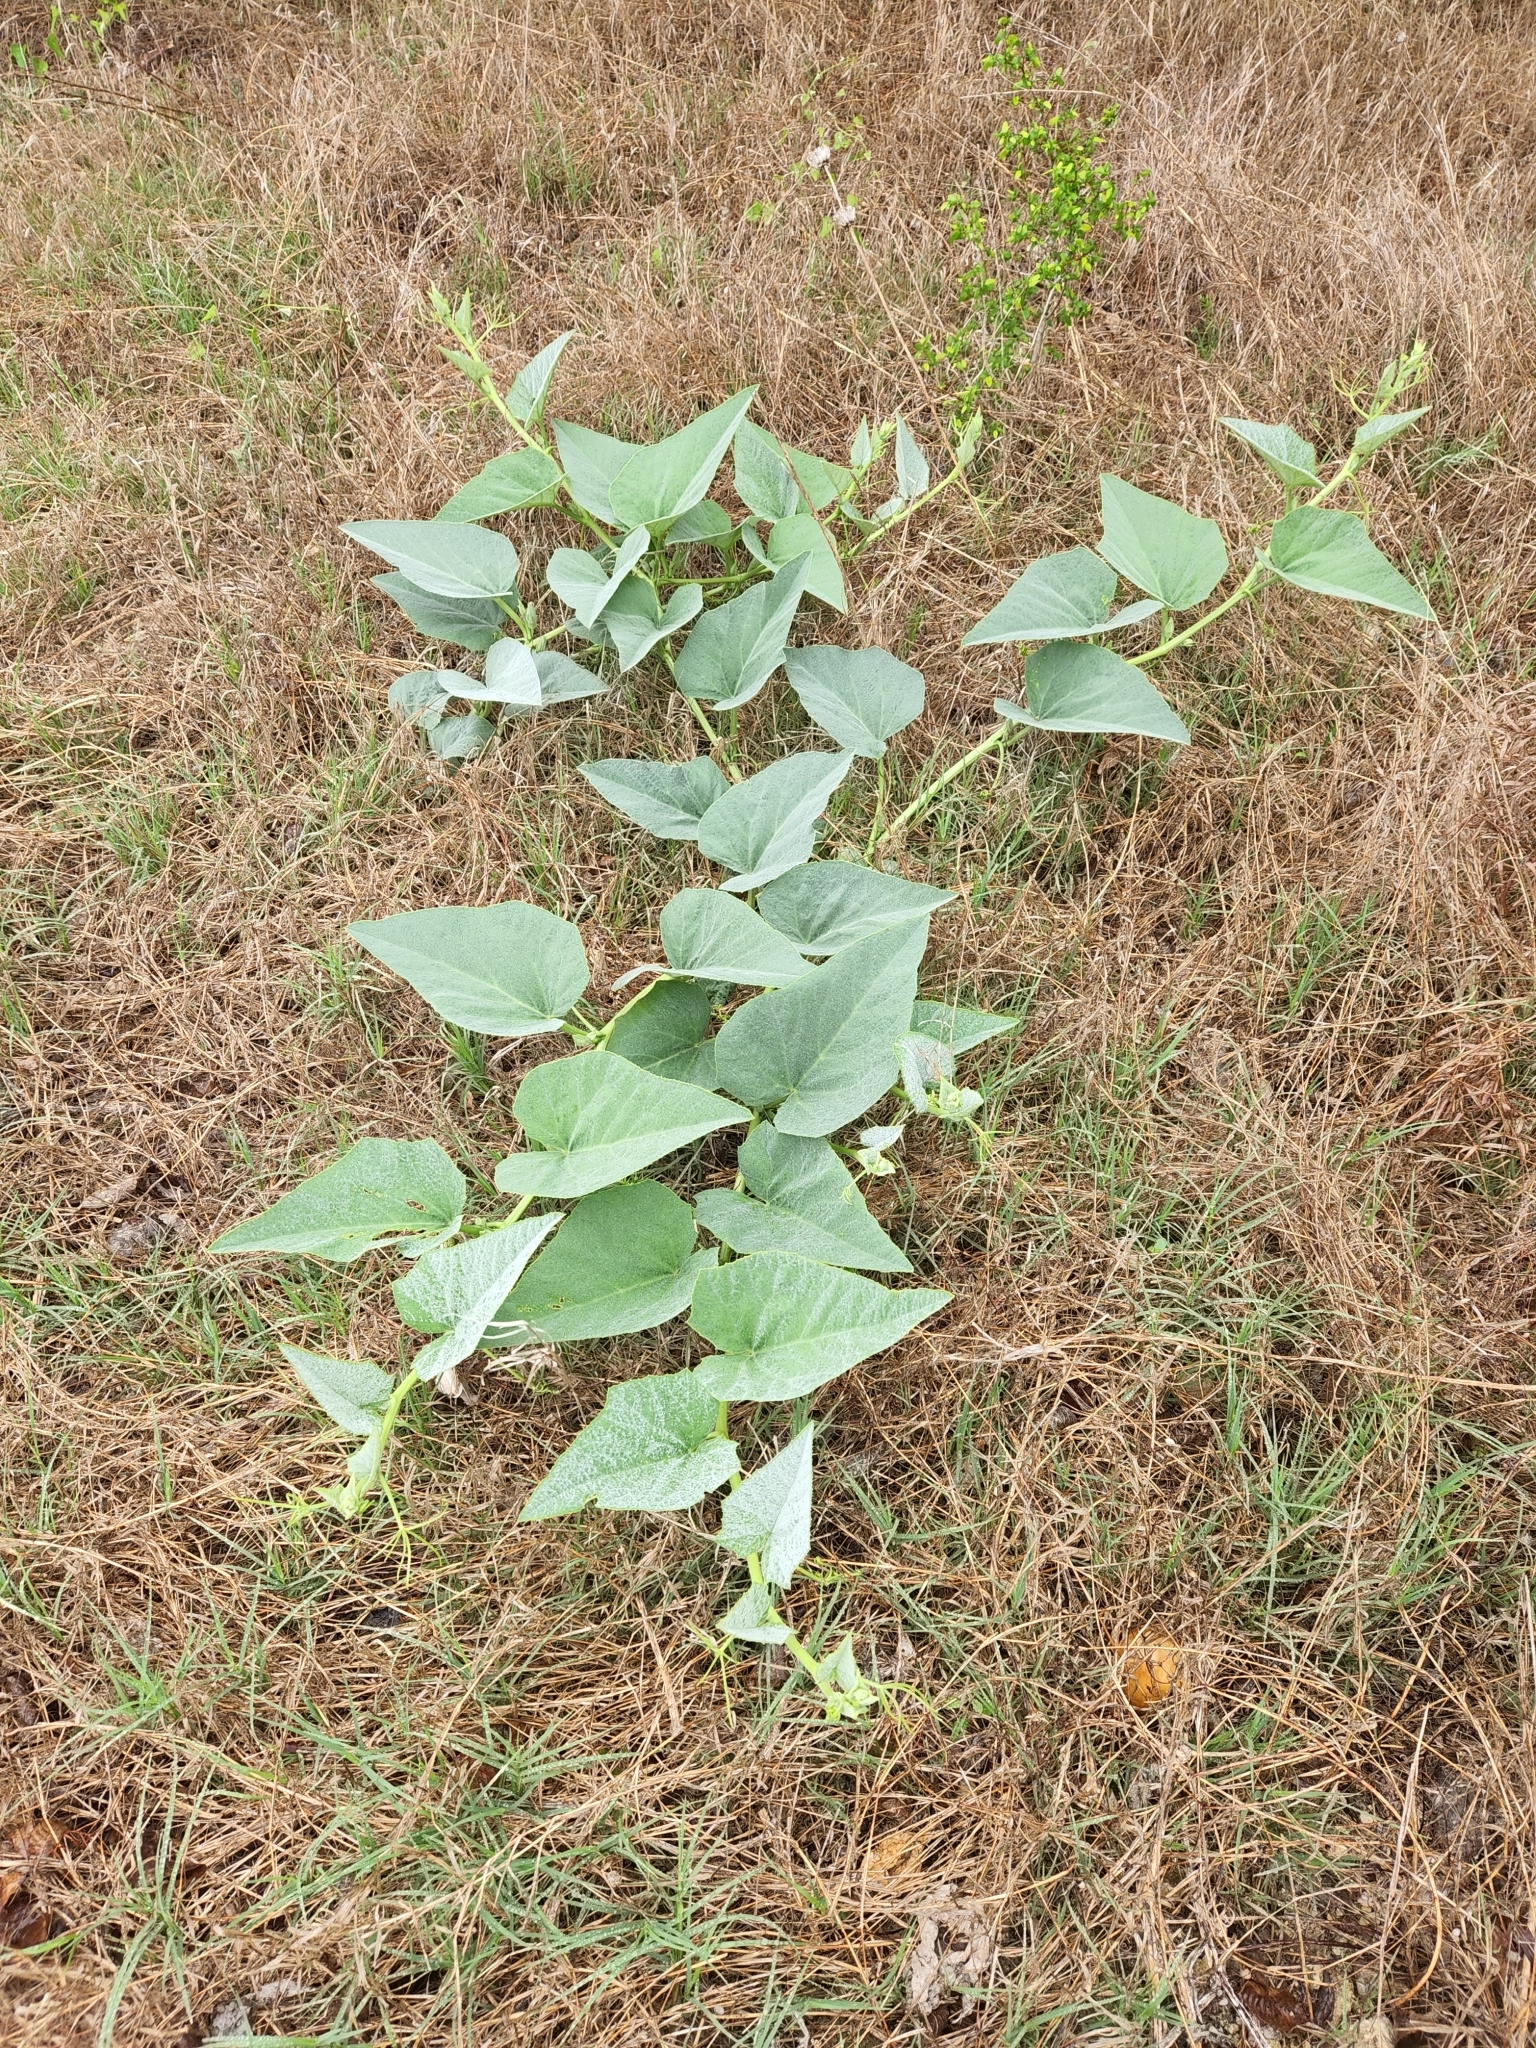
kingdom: Plantae
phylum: Tracheophyta
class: Magnoliopsida
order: Cucurbitales
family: Cucurbitaceae
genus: Cucurbita
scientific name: Cucurbita foetidissima
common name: Buffalo gourd
